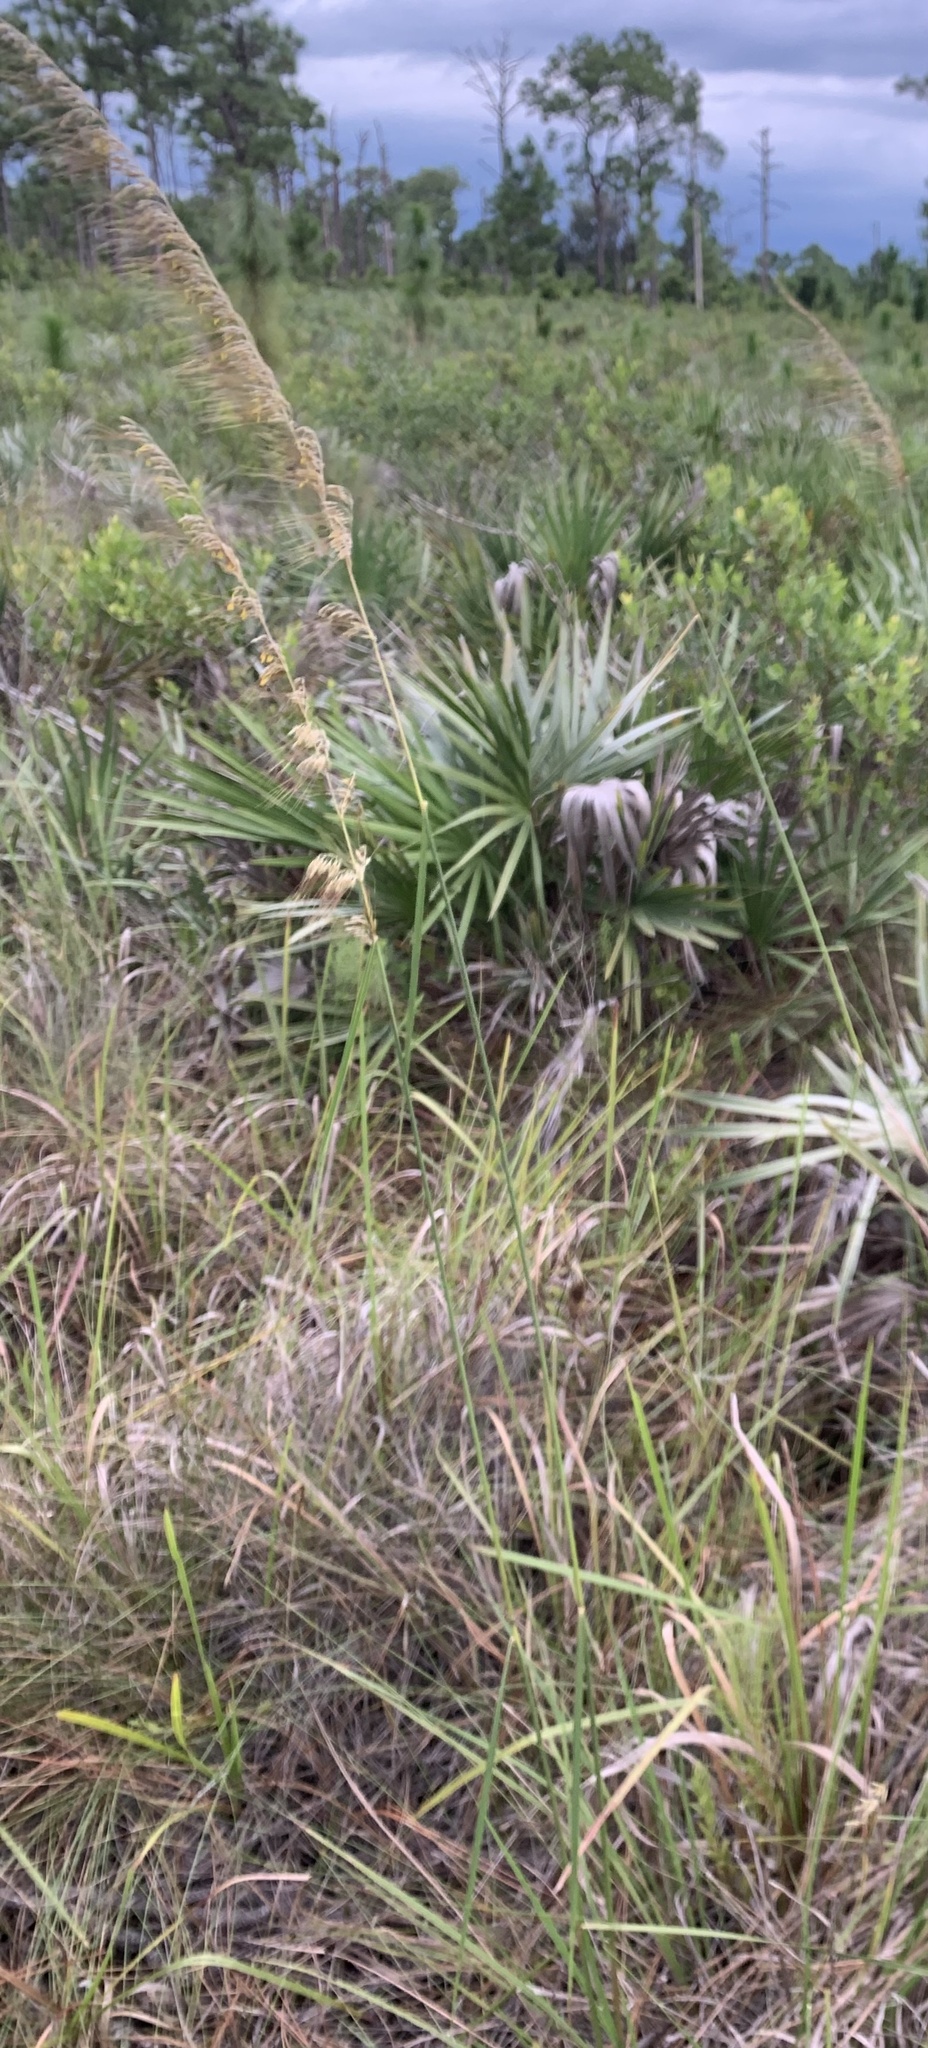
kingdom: Plantae
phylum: Tracheophyta
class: Liliopsida
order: Poales
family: Poaceae
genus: Sorghastrum
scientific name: Sorghastrum secundum
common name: Lopsided indian grass
